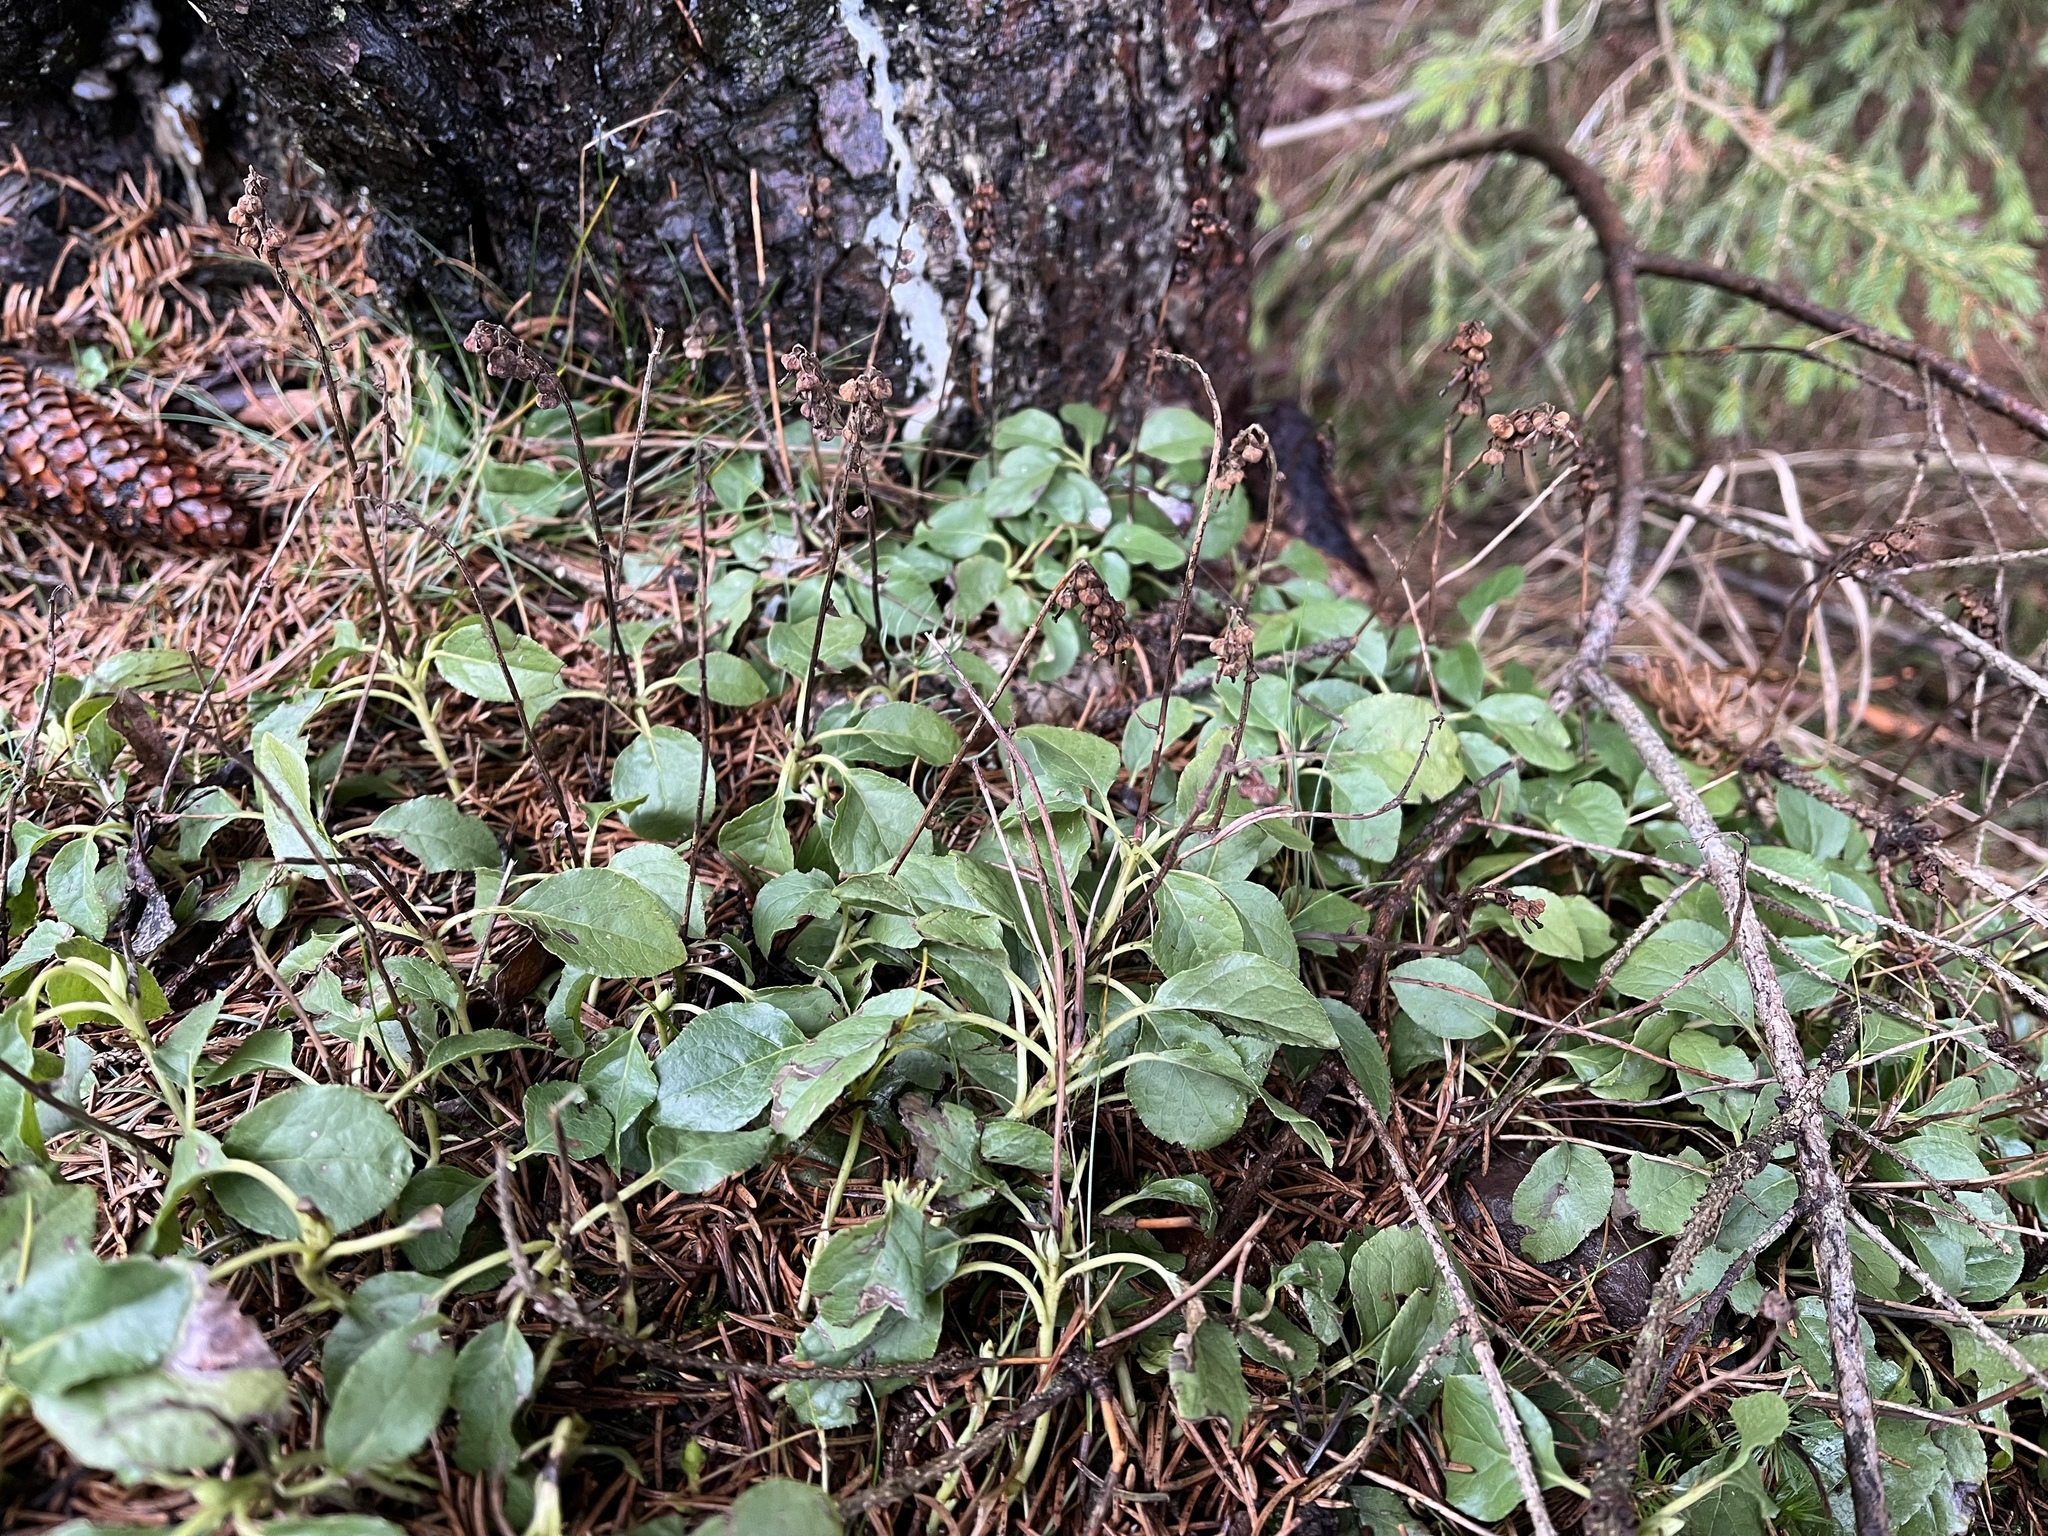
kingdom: Plantae
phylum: Tracheophyta
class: Magnoliopsida
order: Ericales
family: Ericaceae
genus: Orthilia
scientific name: Orthilia secunda
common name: One-sided orthilia
